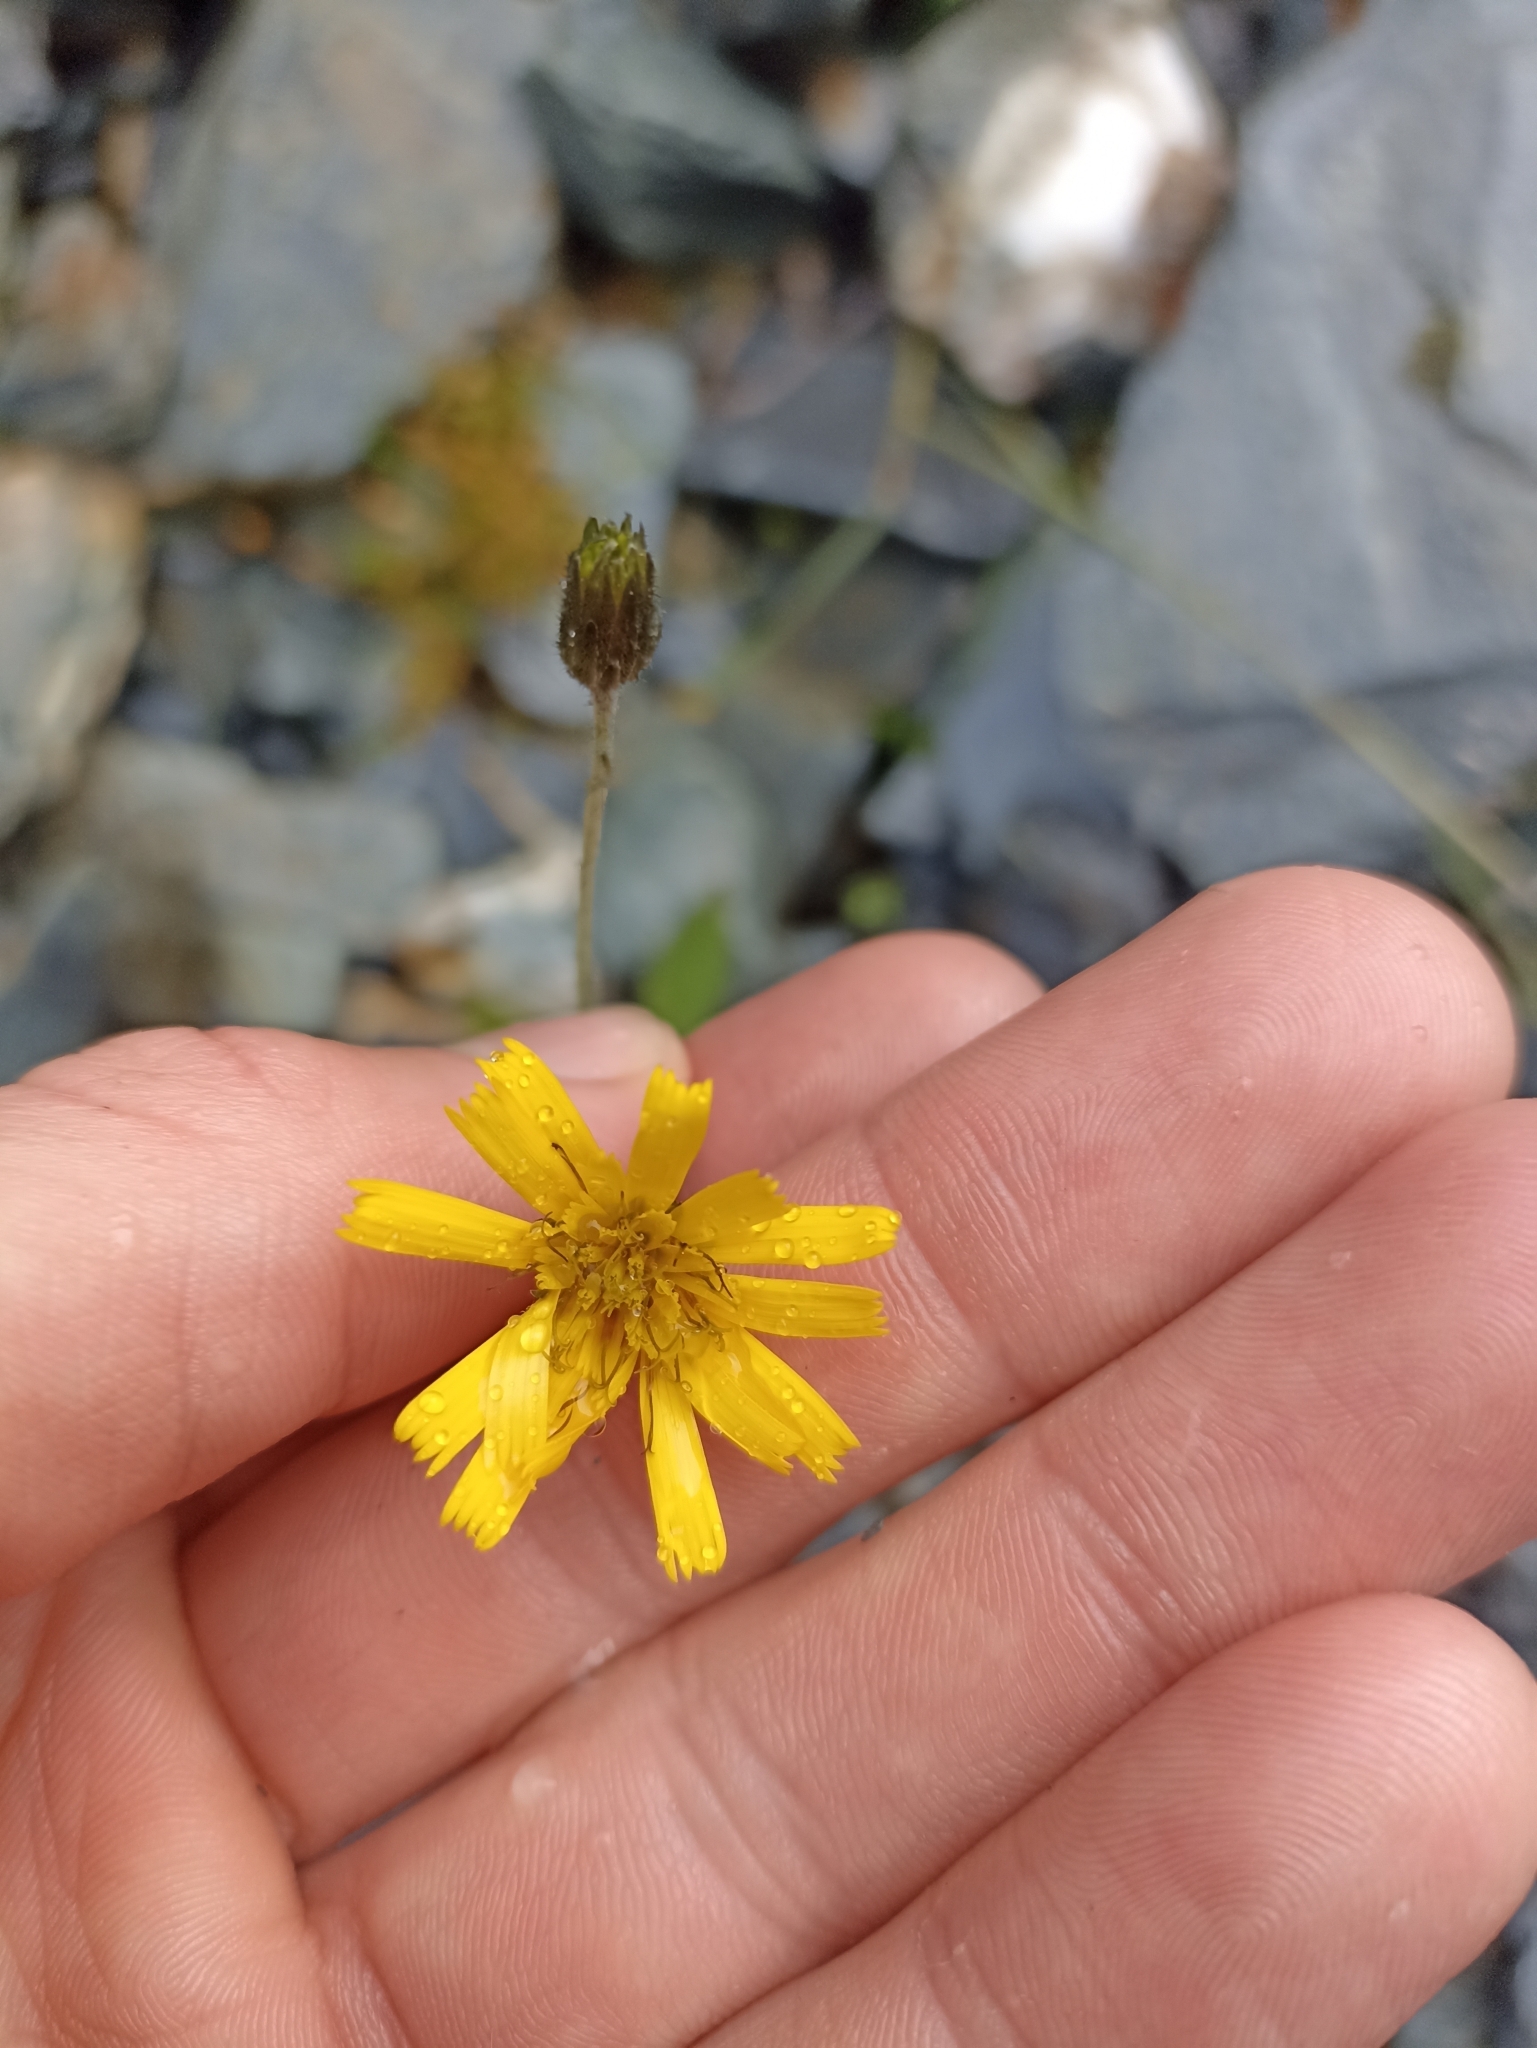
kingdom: Plantae
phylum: Tracheophyta
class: Magnoliopsida
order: Asterales
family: Asteraceae
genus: Hieracium
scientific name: Hieracium lepidulum
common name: Irregular-toothed hawkweed
